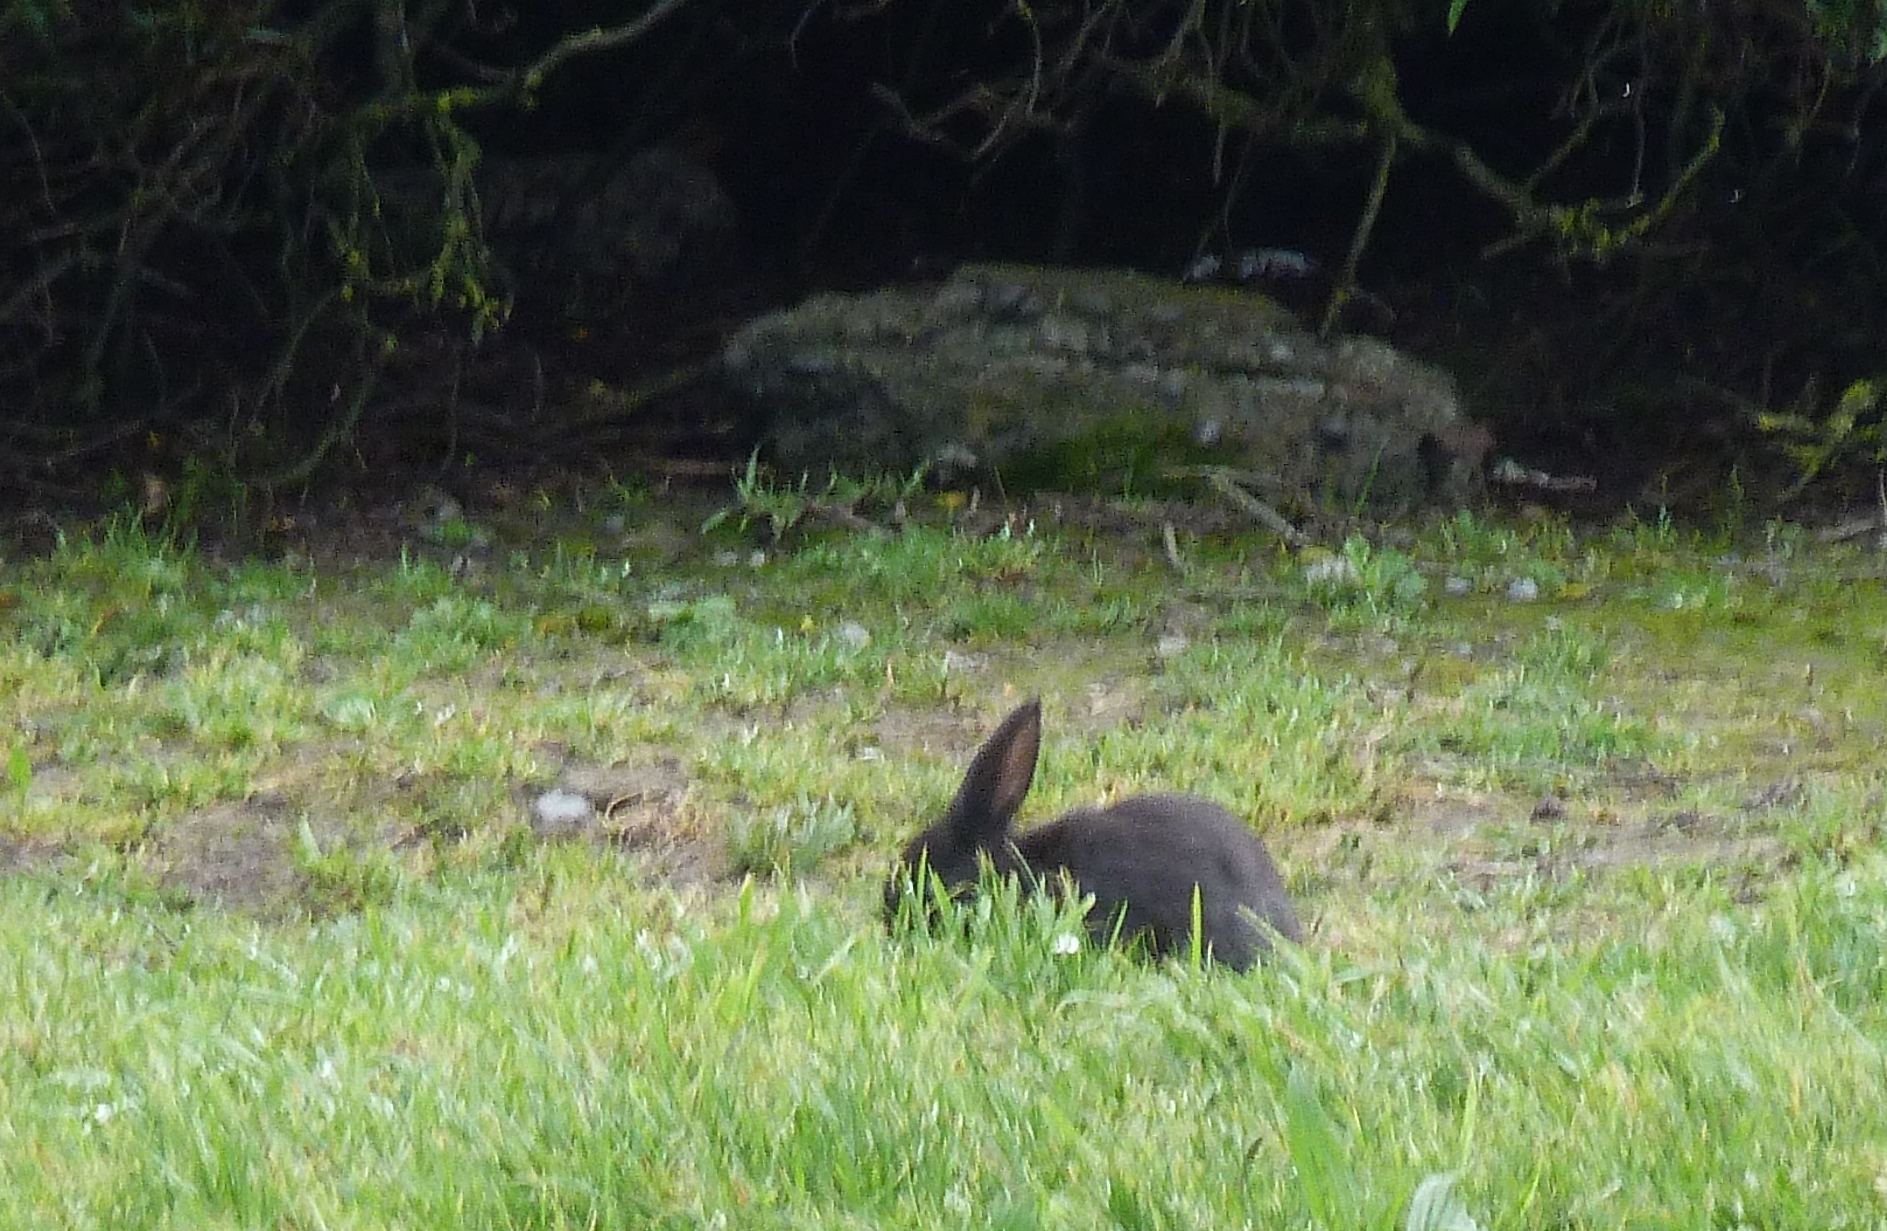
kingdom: Animalia
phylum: Chordata
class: Mammalia
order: Lagomorpha
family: Leporidae
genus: Oryctolagus
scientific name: Oryctolagus cuniculus
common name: European rabbit
